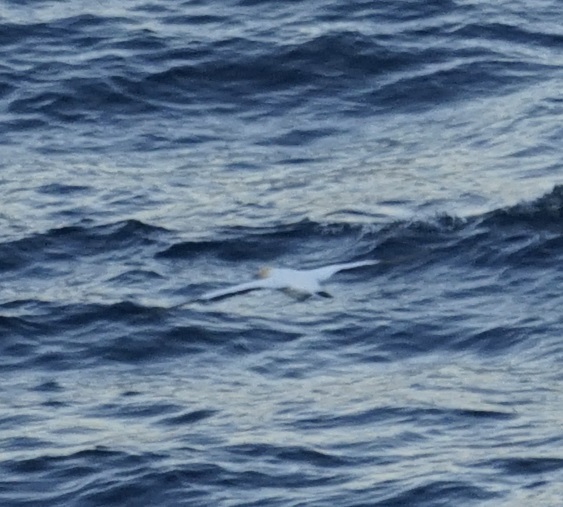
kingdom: Animalia
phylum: Chordata
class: Aves
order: Suliformes
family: Sulidae
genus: Morus
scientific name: Morus serrator
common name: Australasian gannet
